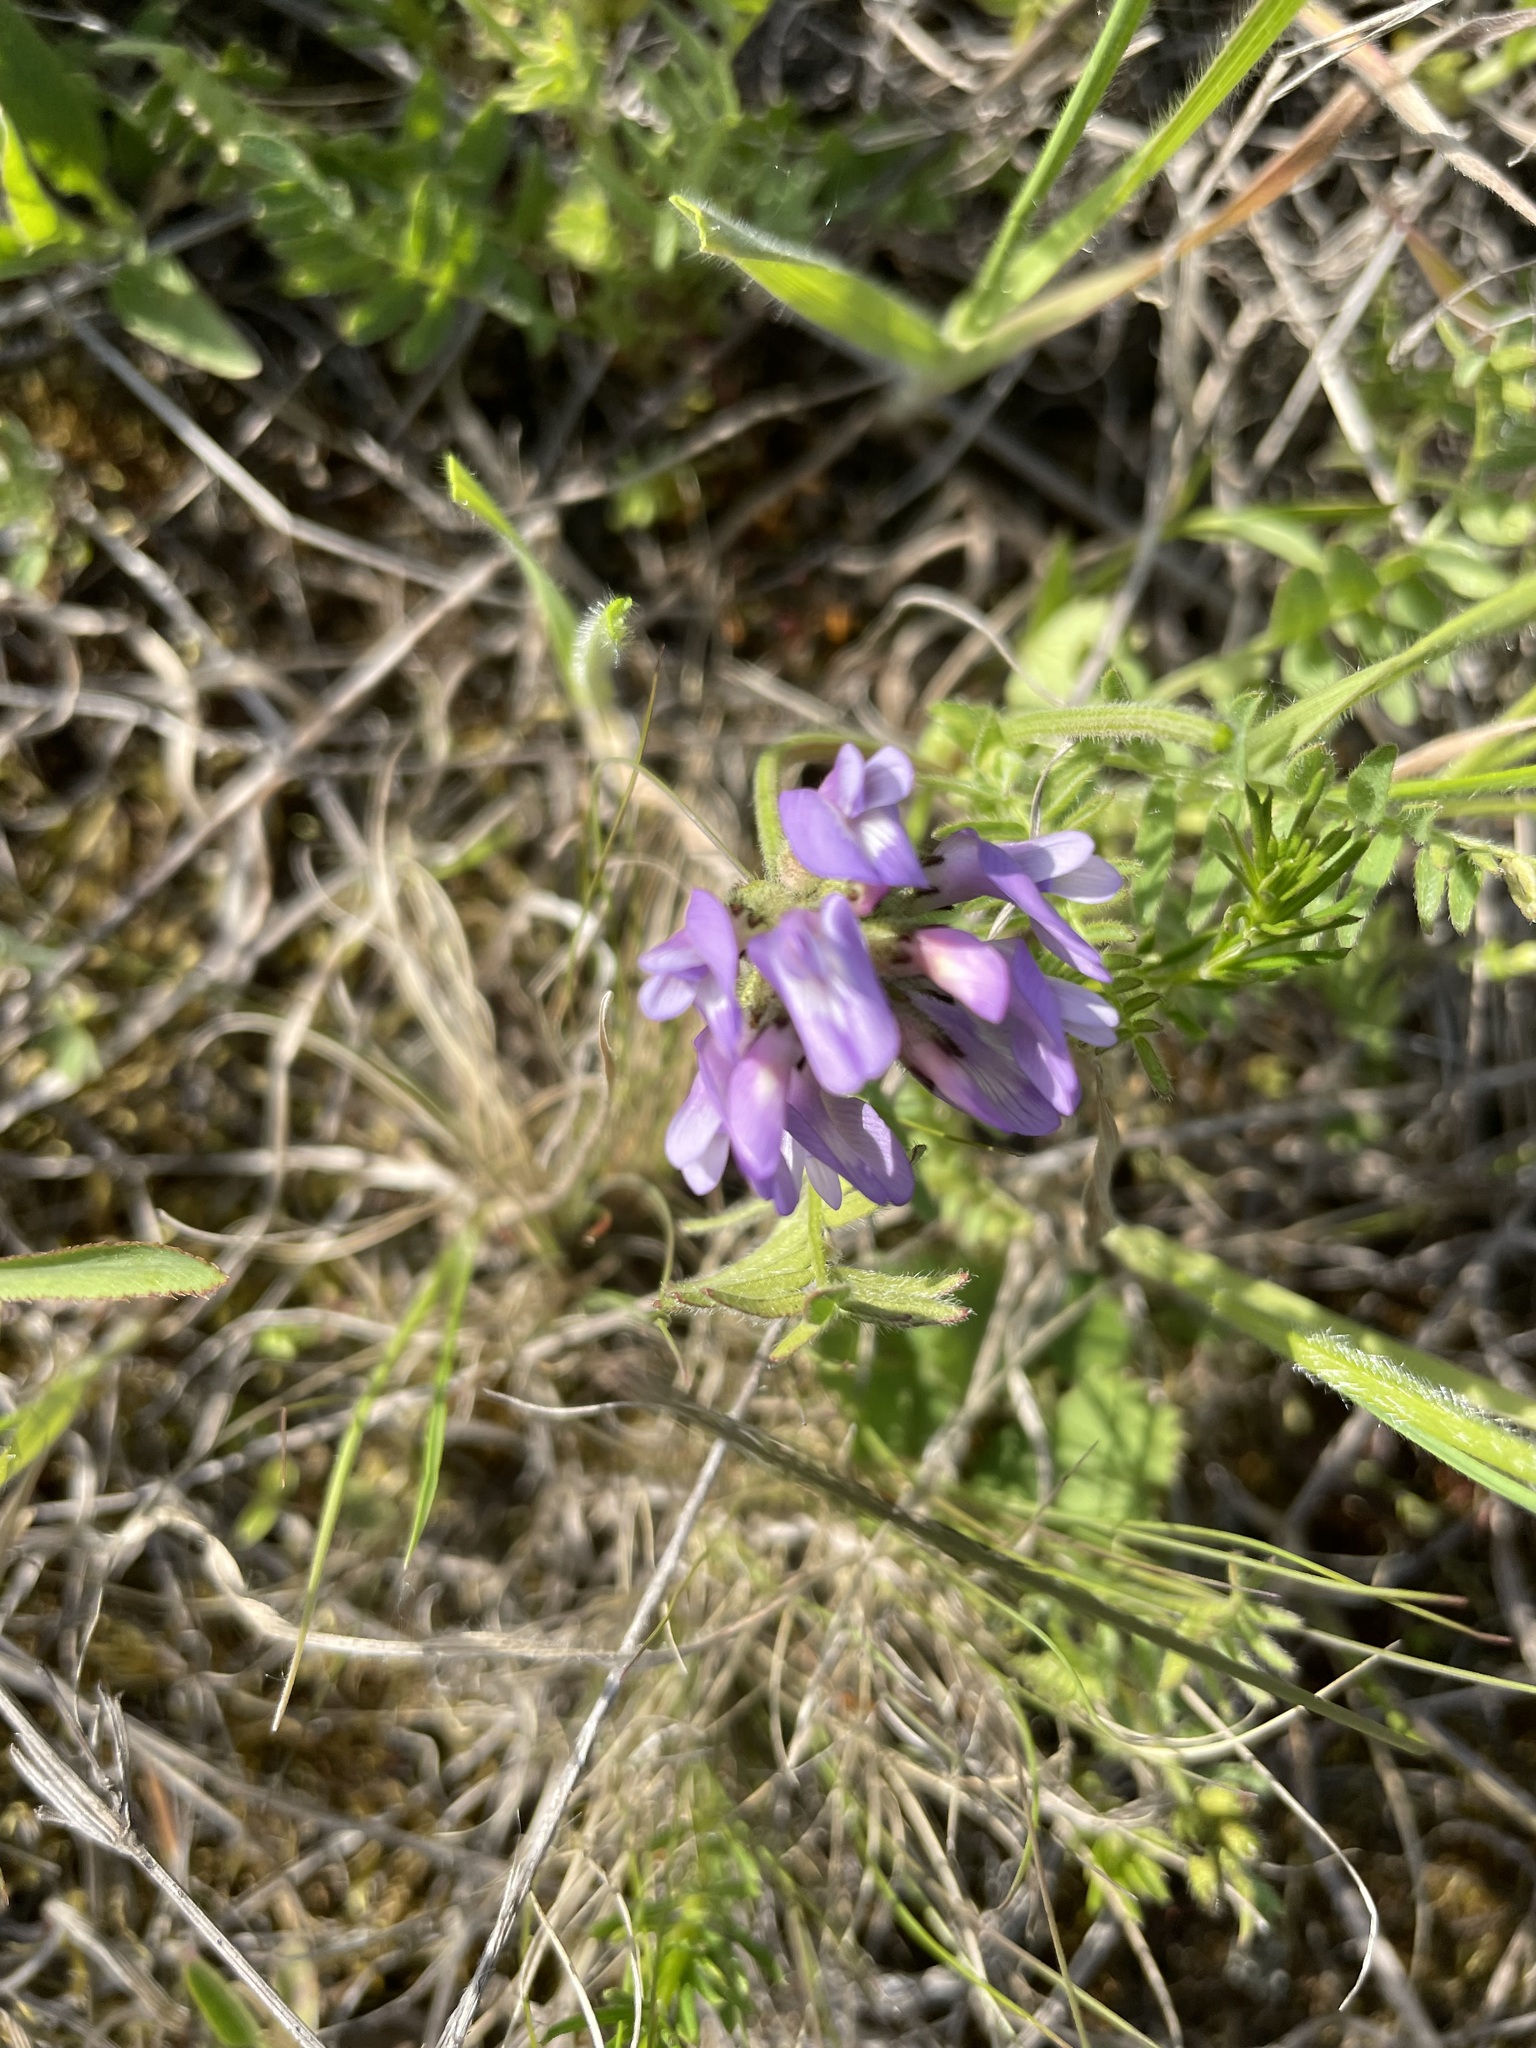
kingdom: Plantae
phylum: Tracheophyta
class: Magnoliopsida
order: Fabales
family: Fabaceae
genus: Astragalus
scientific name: Astragalus danicus
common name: Purple milk-vetch
